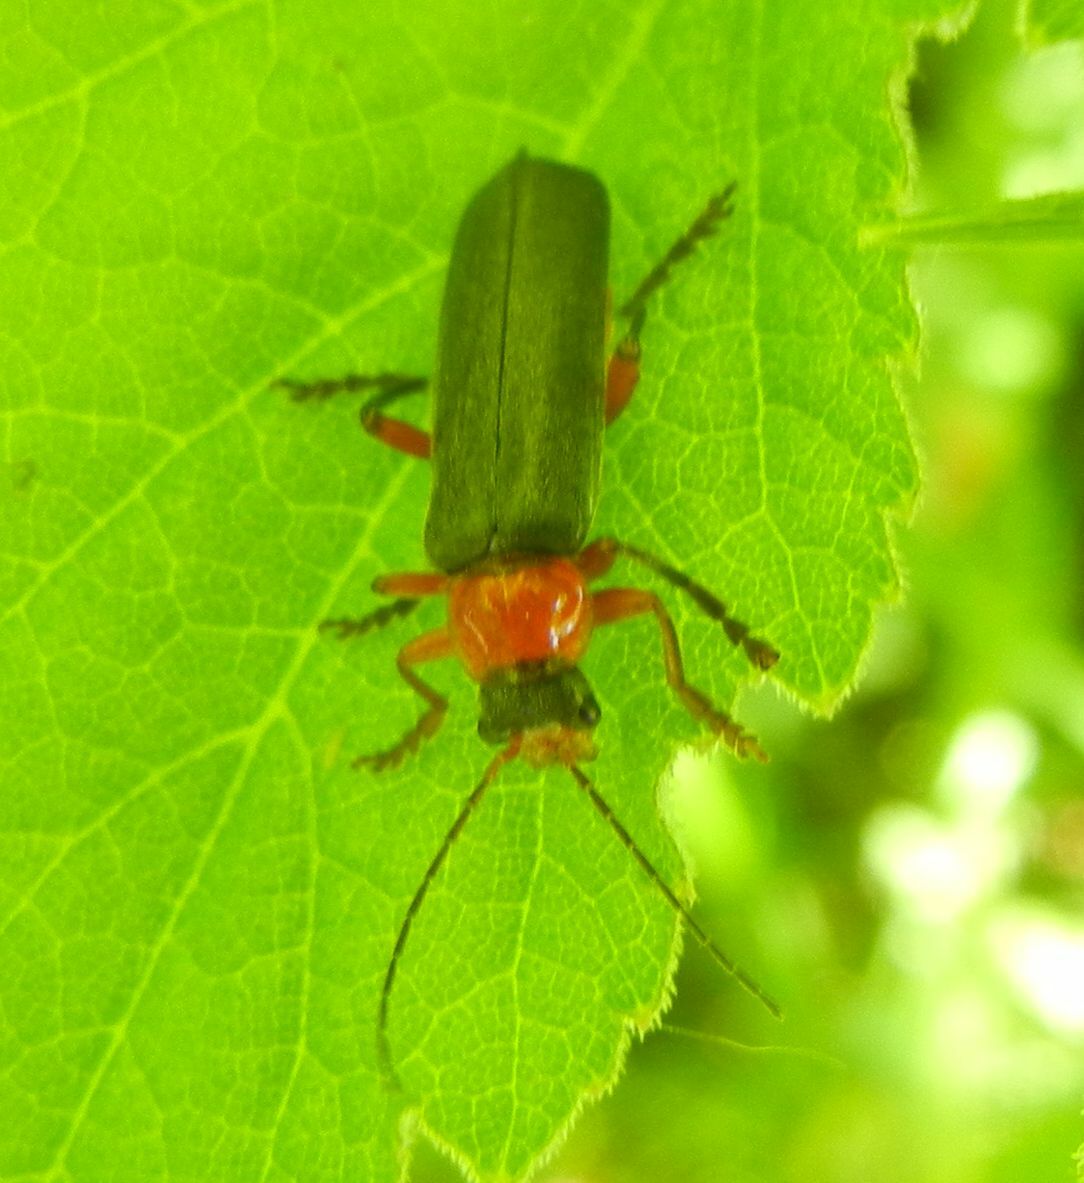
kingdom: Animalia
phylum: Arthropoda
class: Insecta
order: Coleoptera
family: Cantharidae
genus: Cantharis
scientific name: Cantharis pellucida
